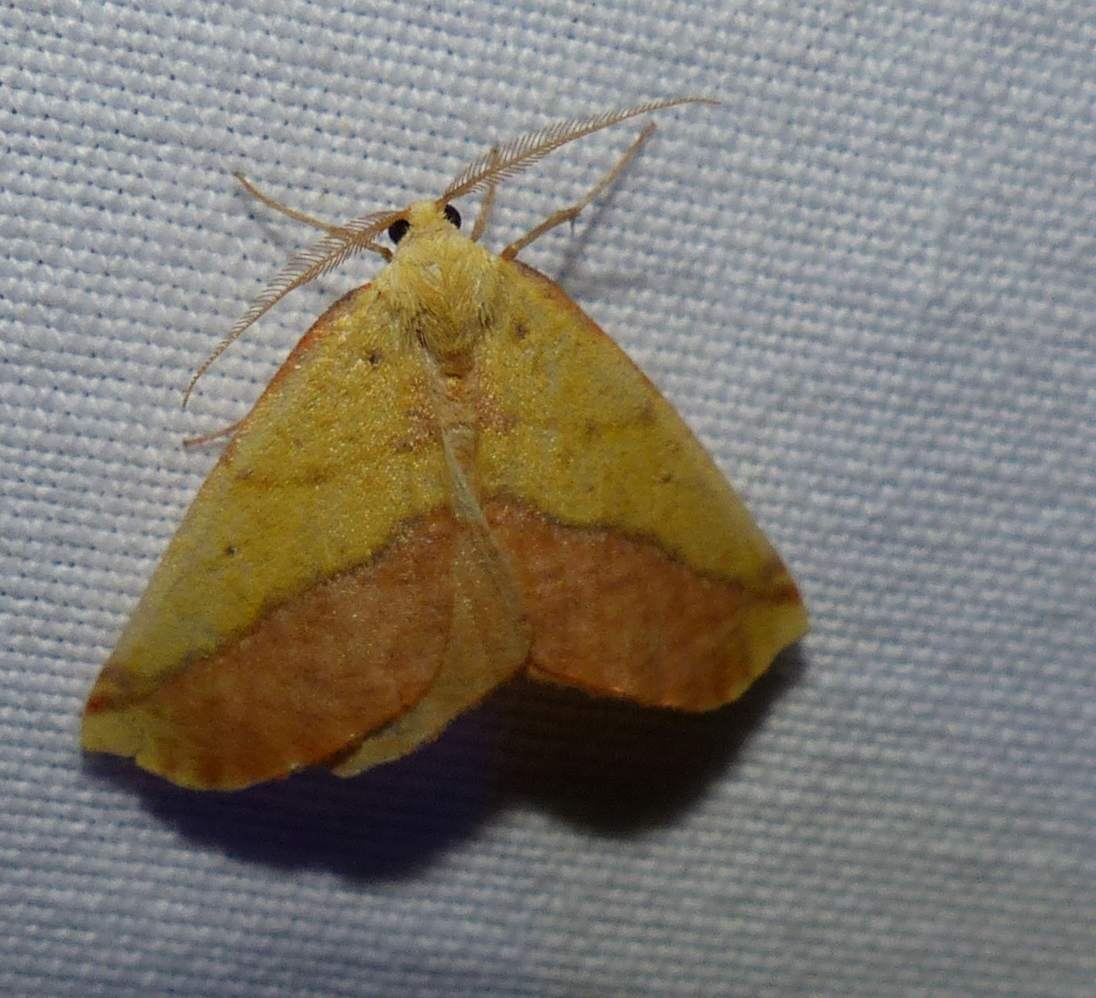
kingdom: Animalia
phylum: Arthropoda
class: Insecta
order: Lepidoptera
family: Geometridae
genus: Sicya
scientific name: Sicya macularia
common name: Sharp-lined yellow
